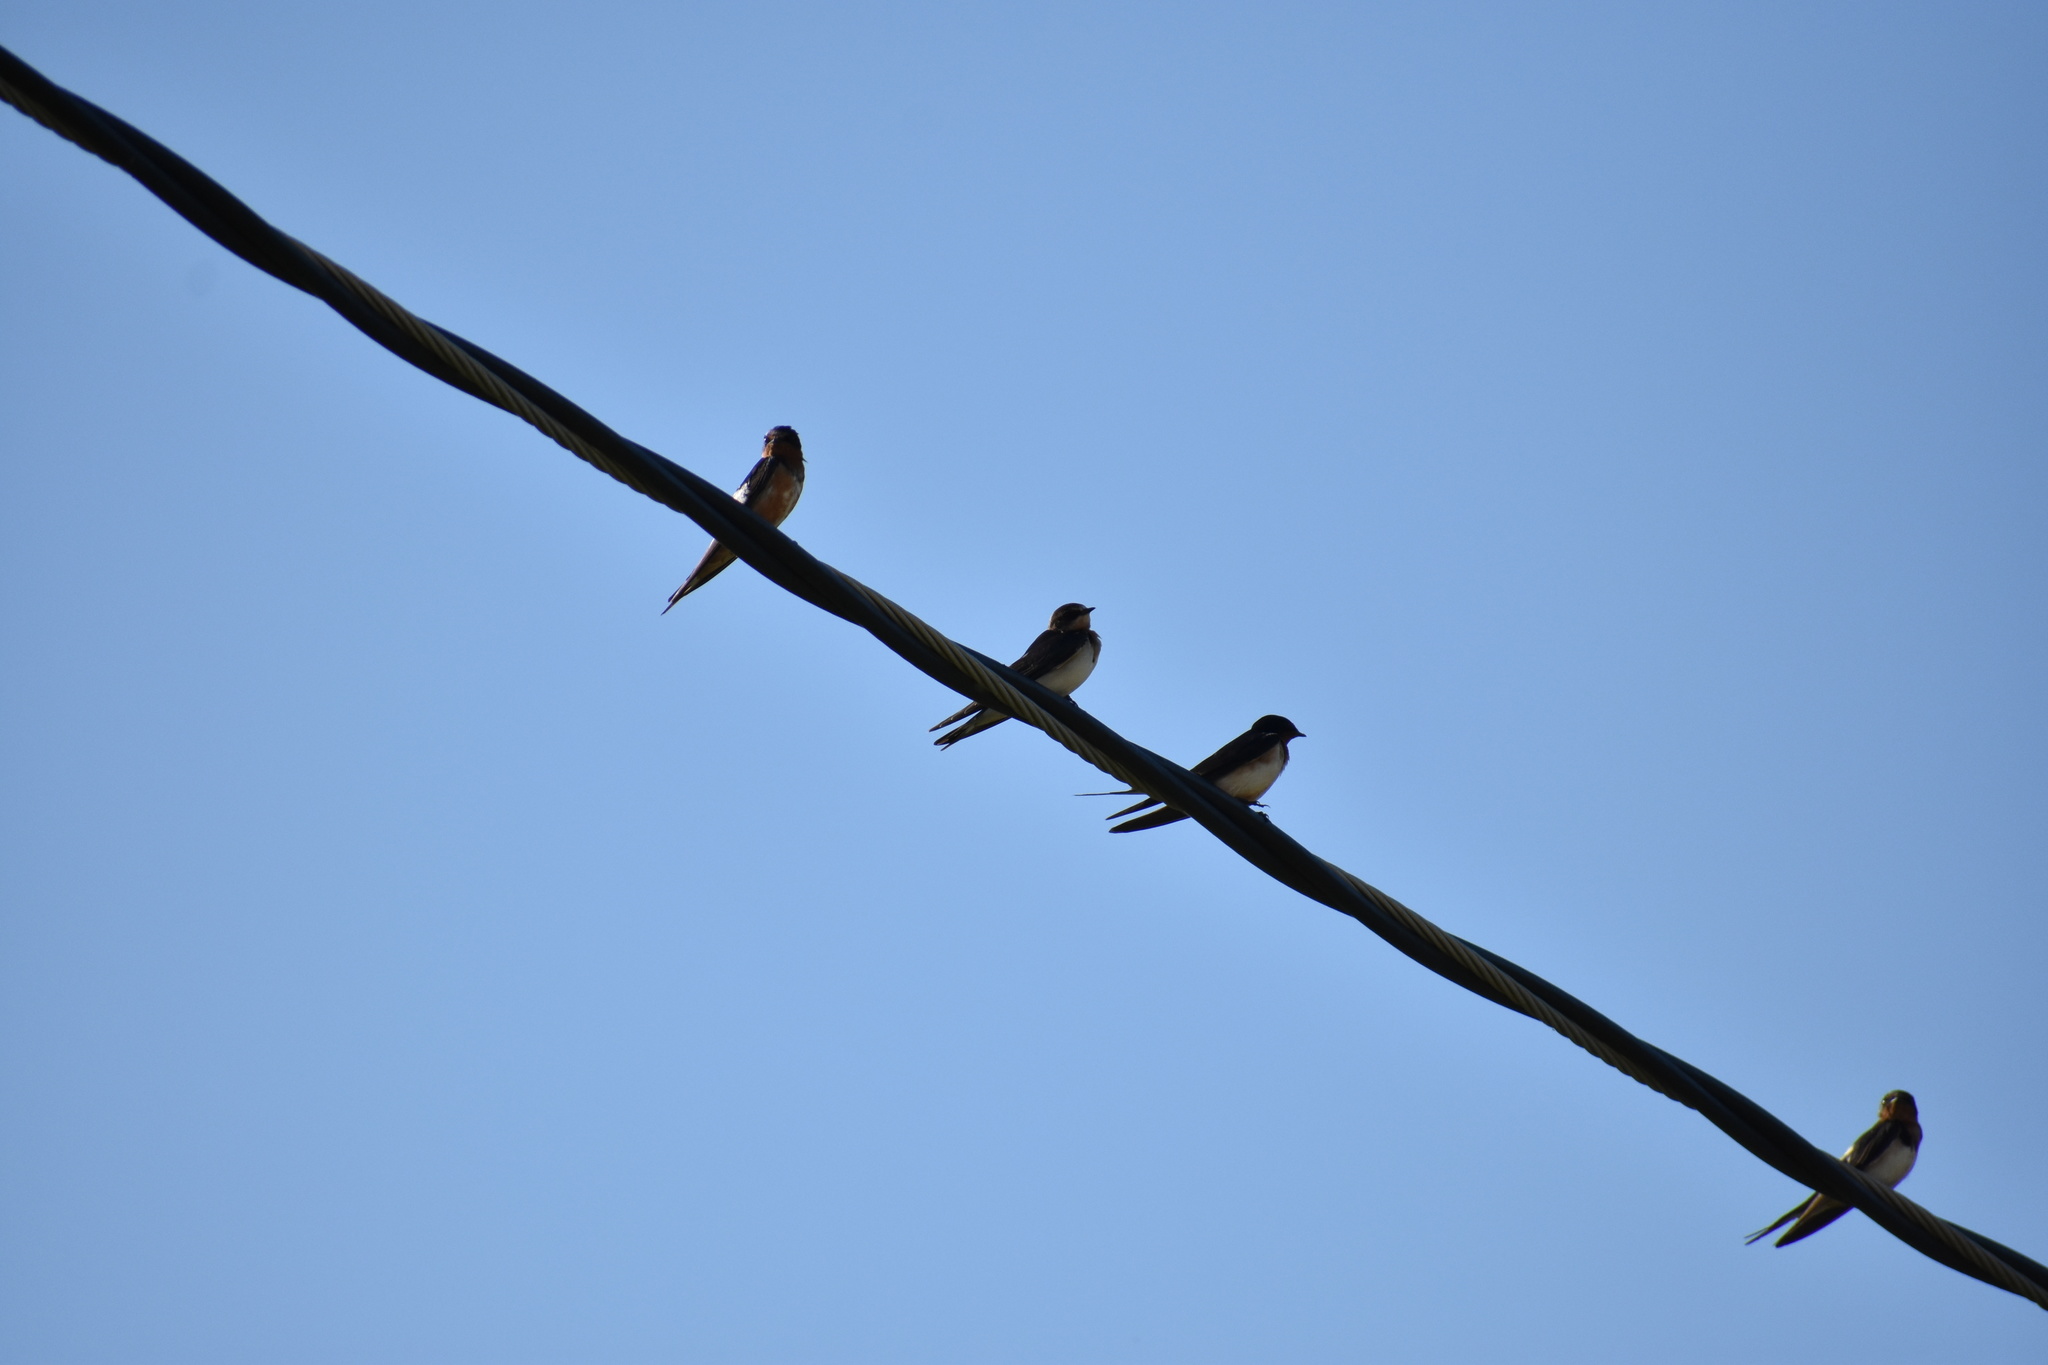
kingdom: Animalia
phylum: Chordata
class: Aves
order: Passeriformes
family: Hirundinidae
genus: Hirundo
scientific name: Hirundo rustica
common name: Barn swallow
